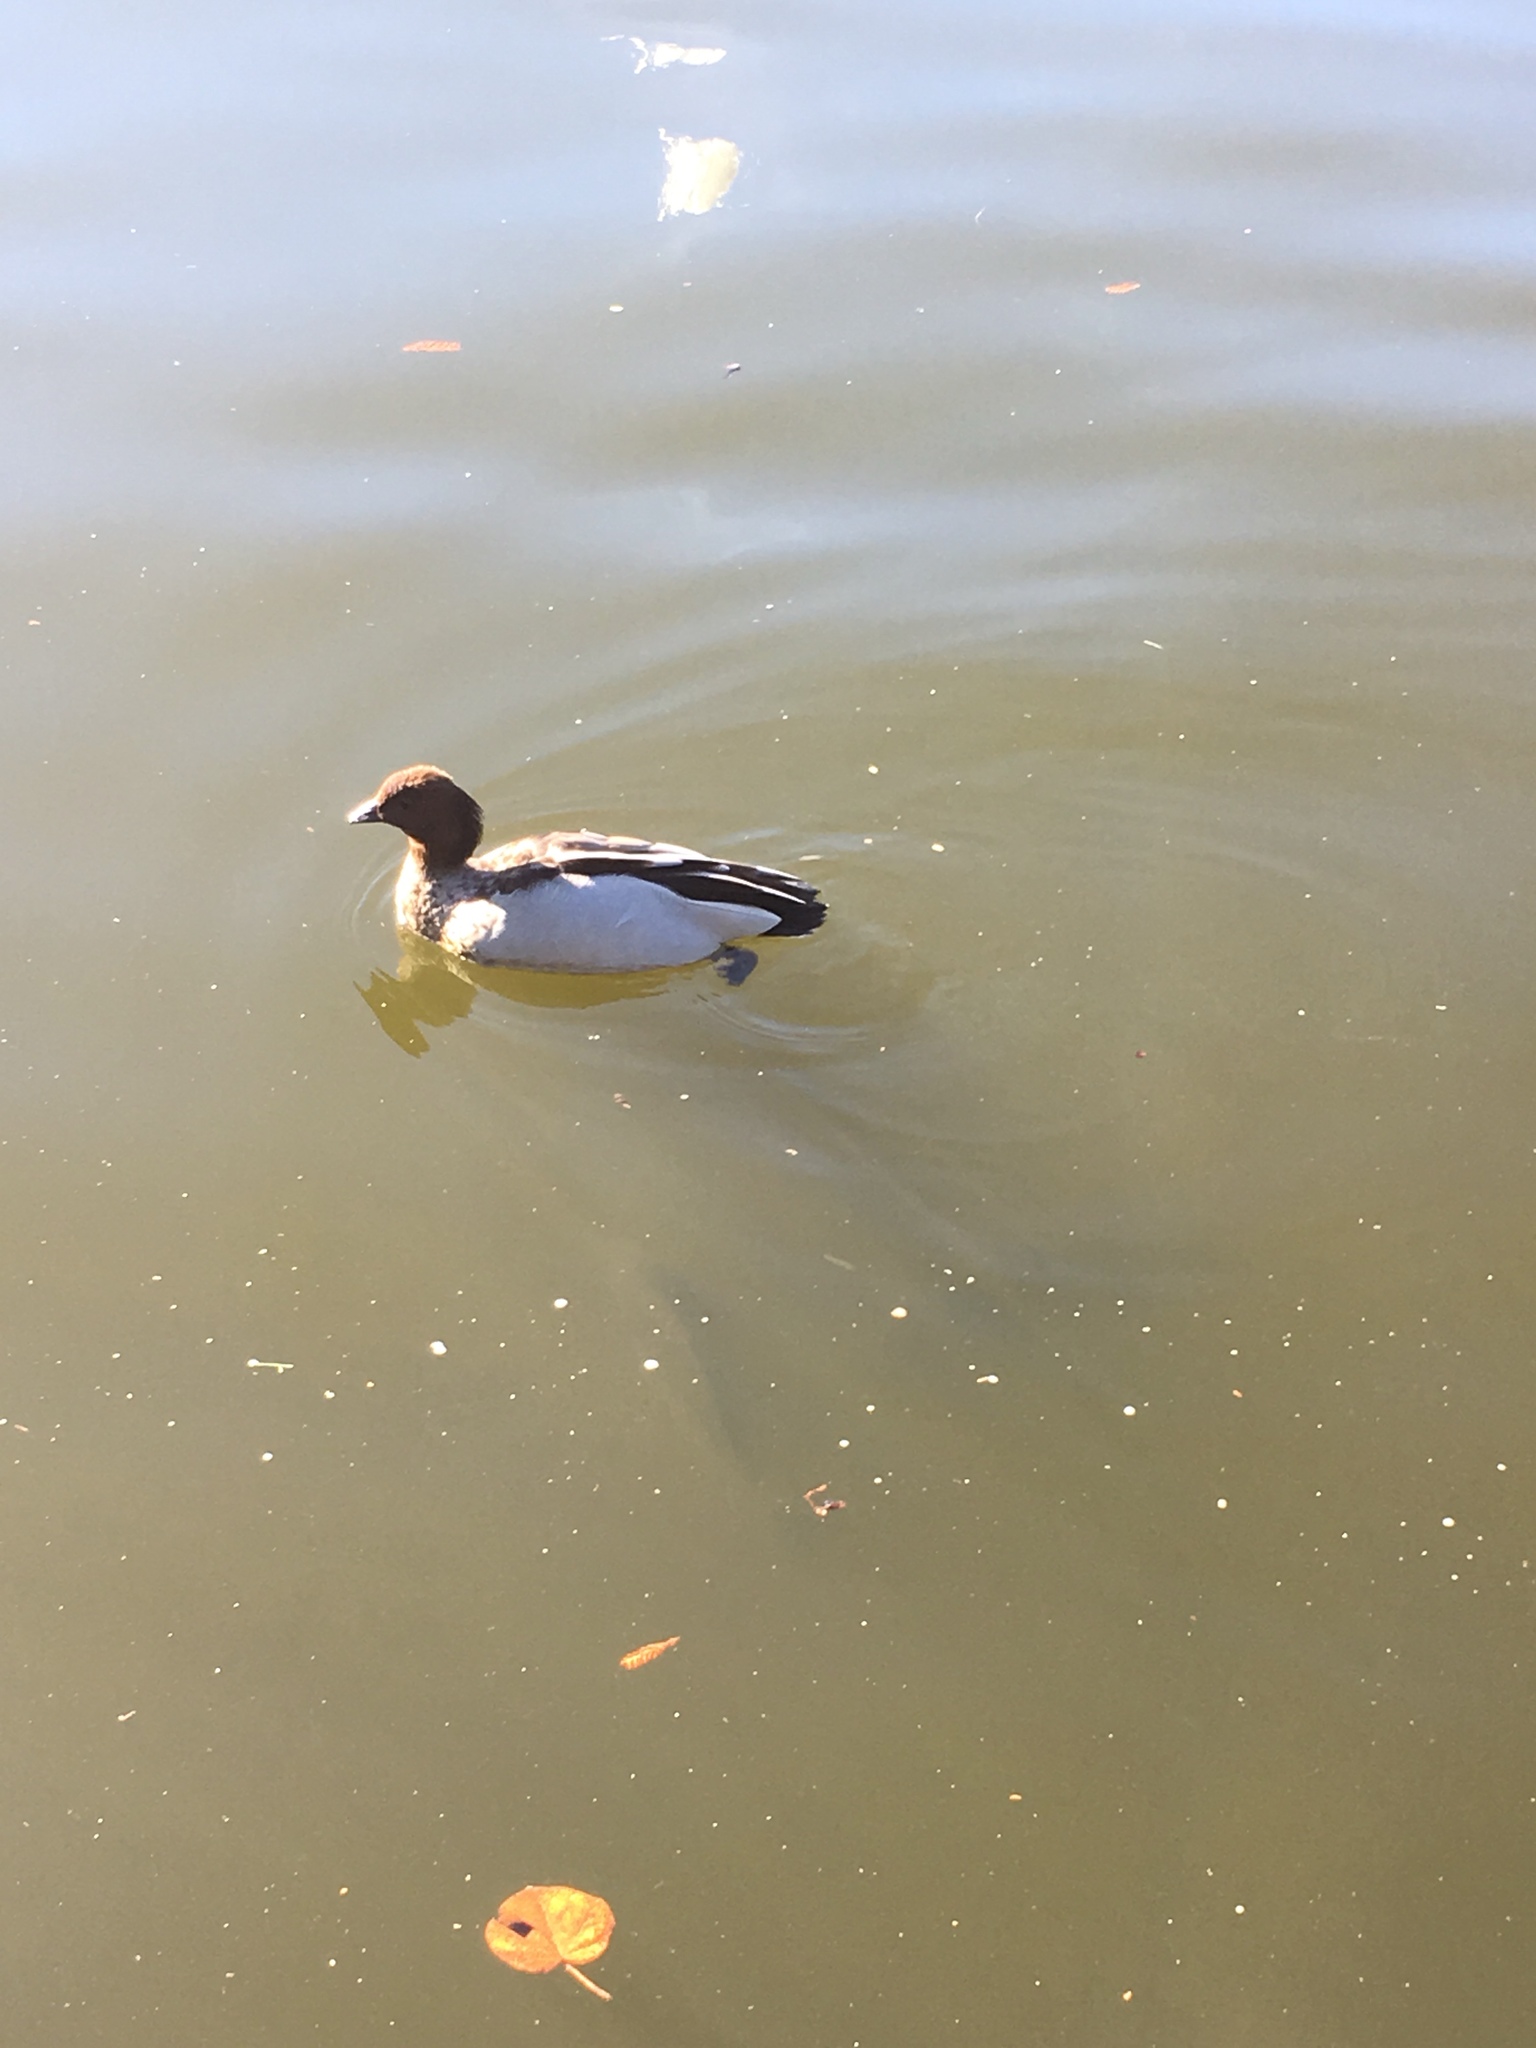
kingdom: Animalia
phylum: Chordata
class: Aves
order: Anseriformes
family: Anatidae
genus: Chenonetta
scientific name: Chenonetta jubata
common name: Maned duck
